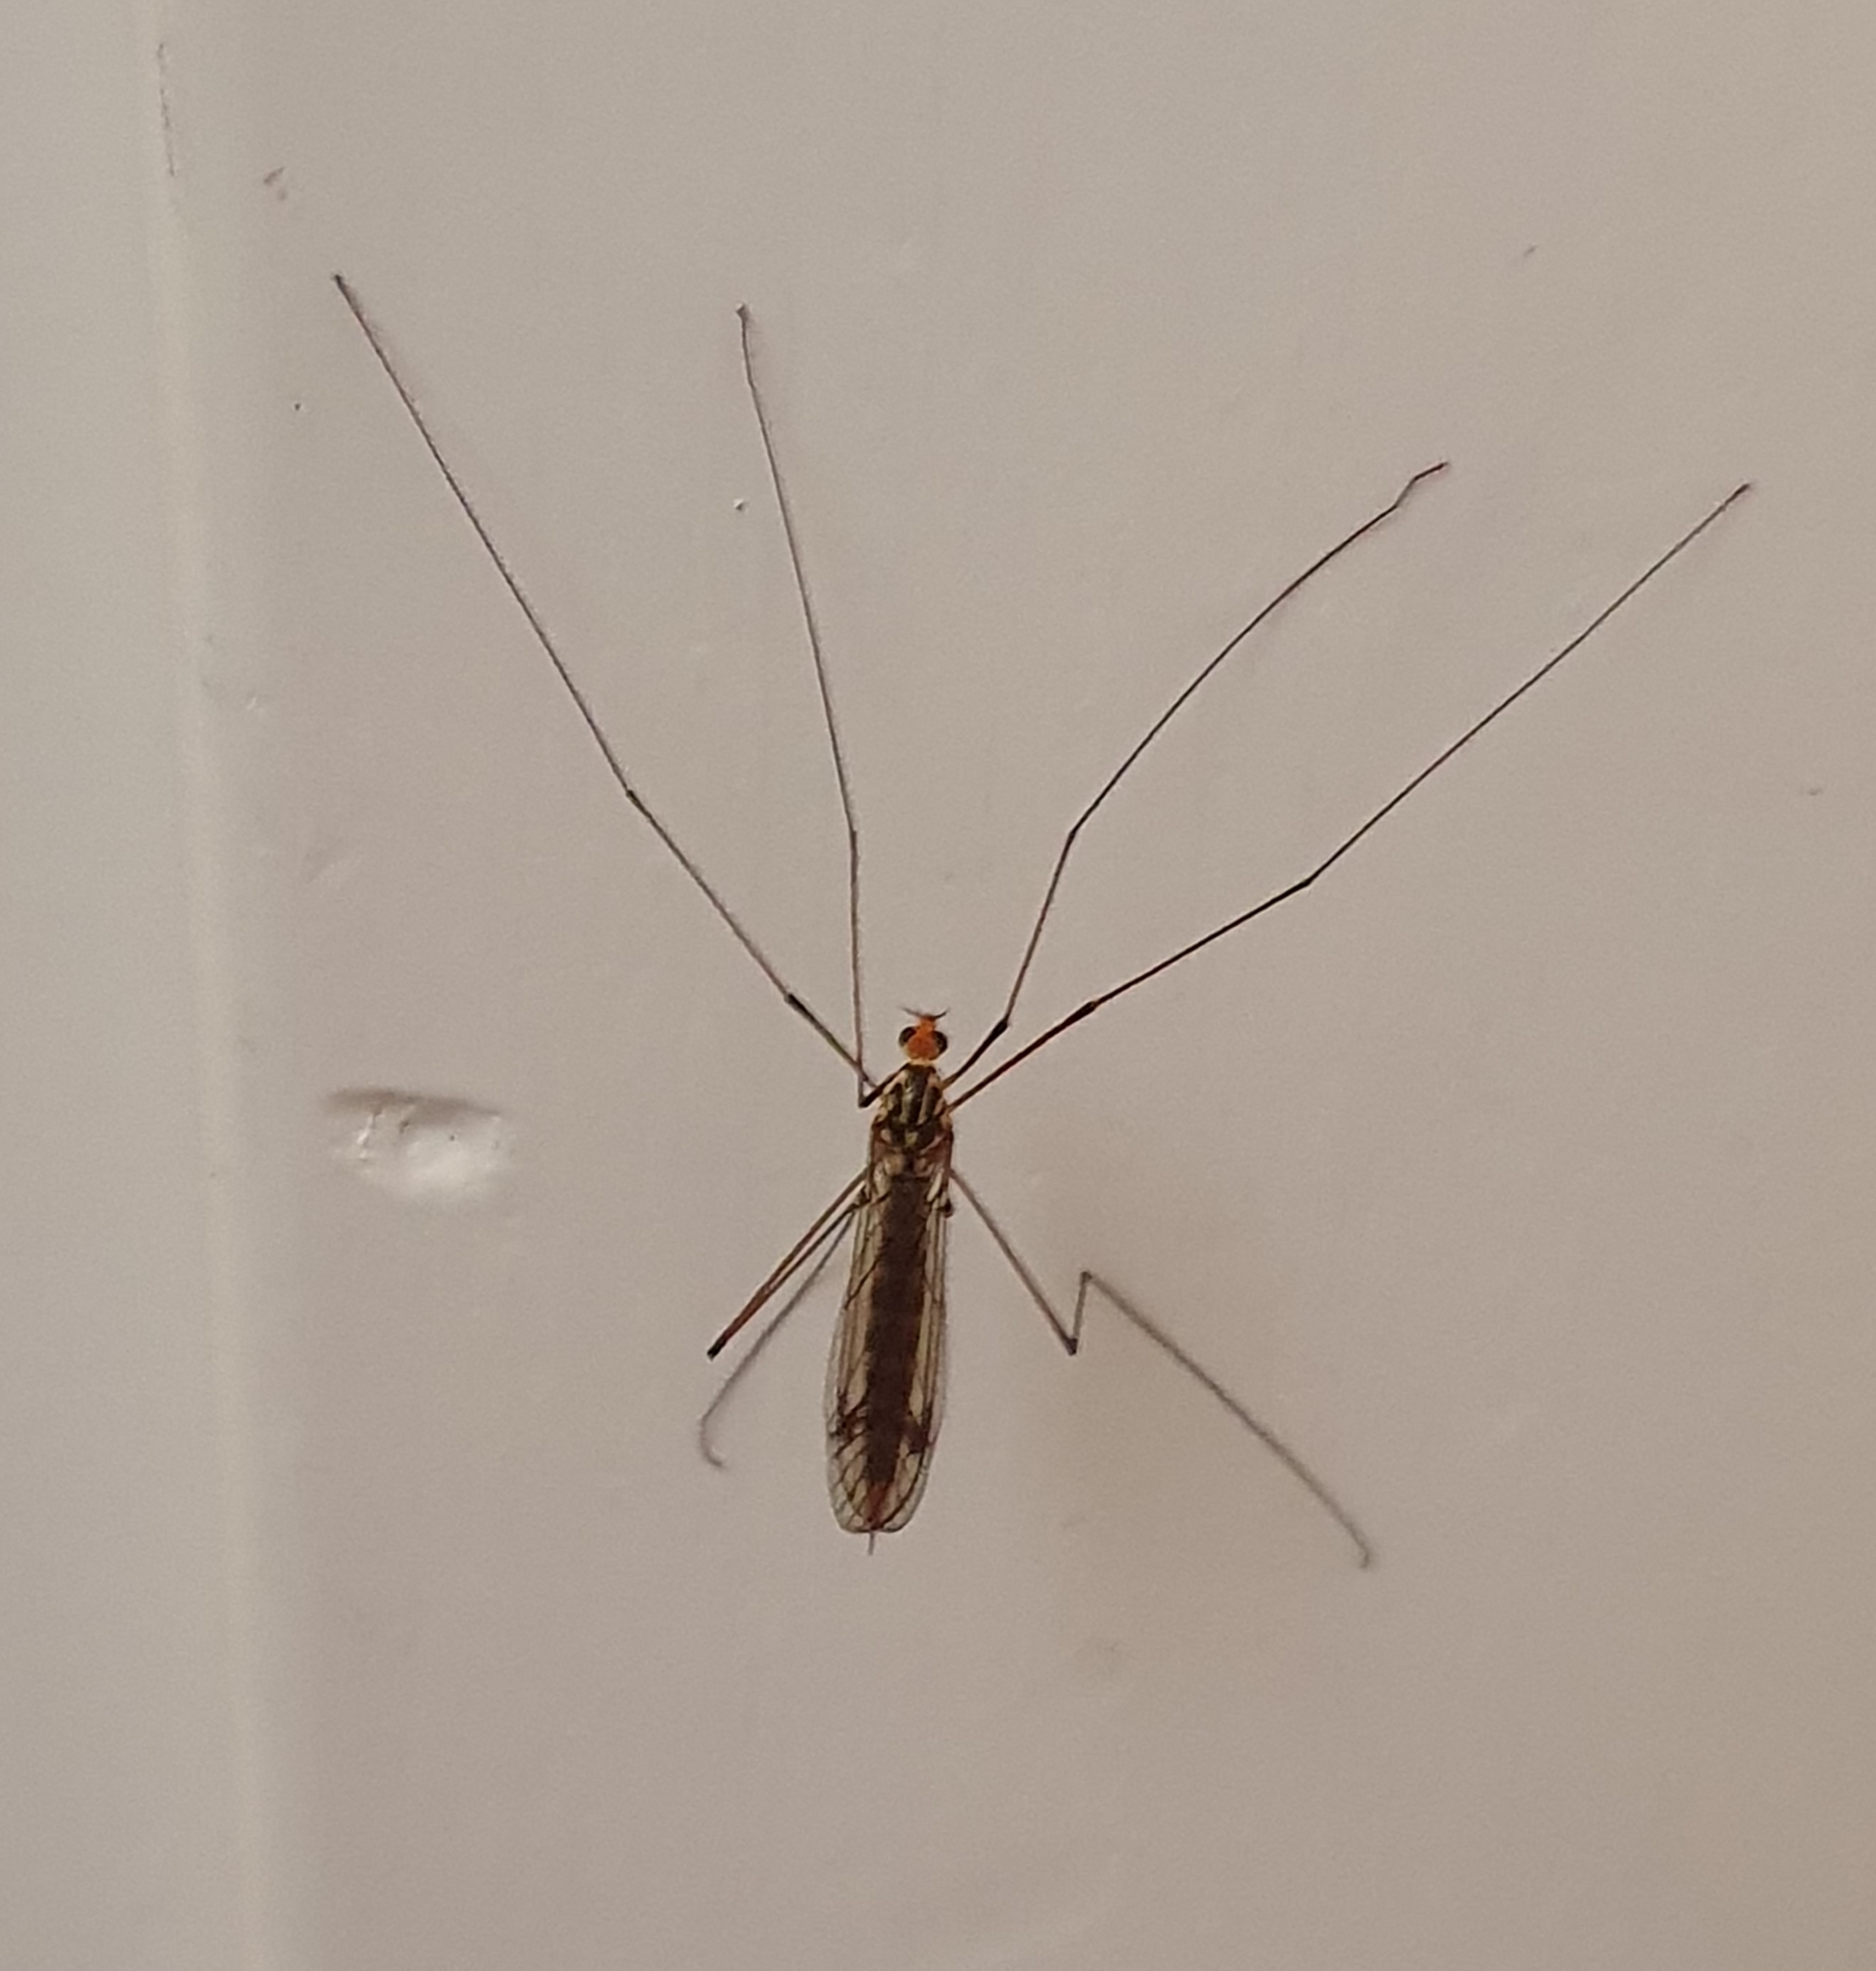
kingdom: Animalia
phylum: Arthropoda
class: Insecta
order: Diptera
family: Tipulidae
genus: Nephrotoma
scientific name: Nephrotoma flavipalpis
